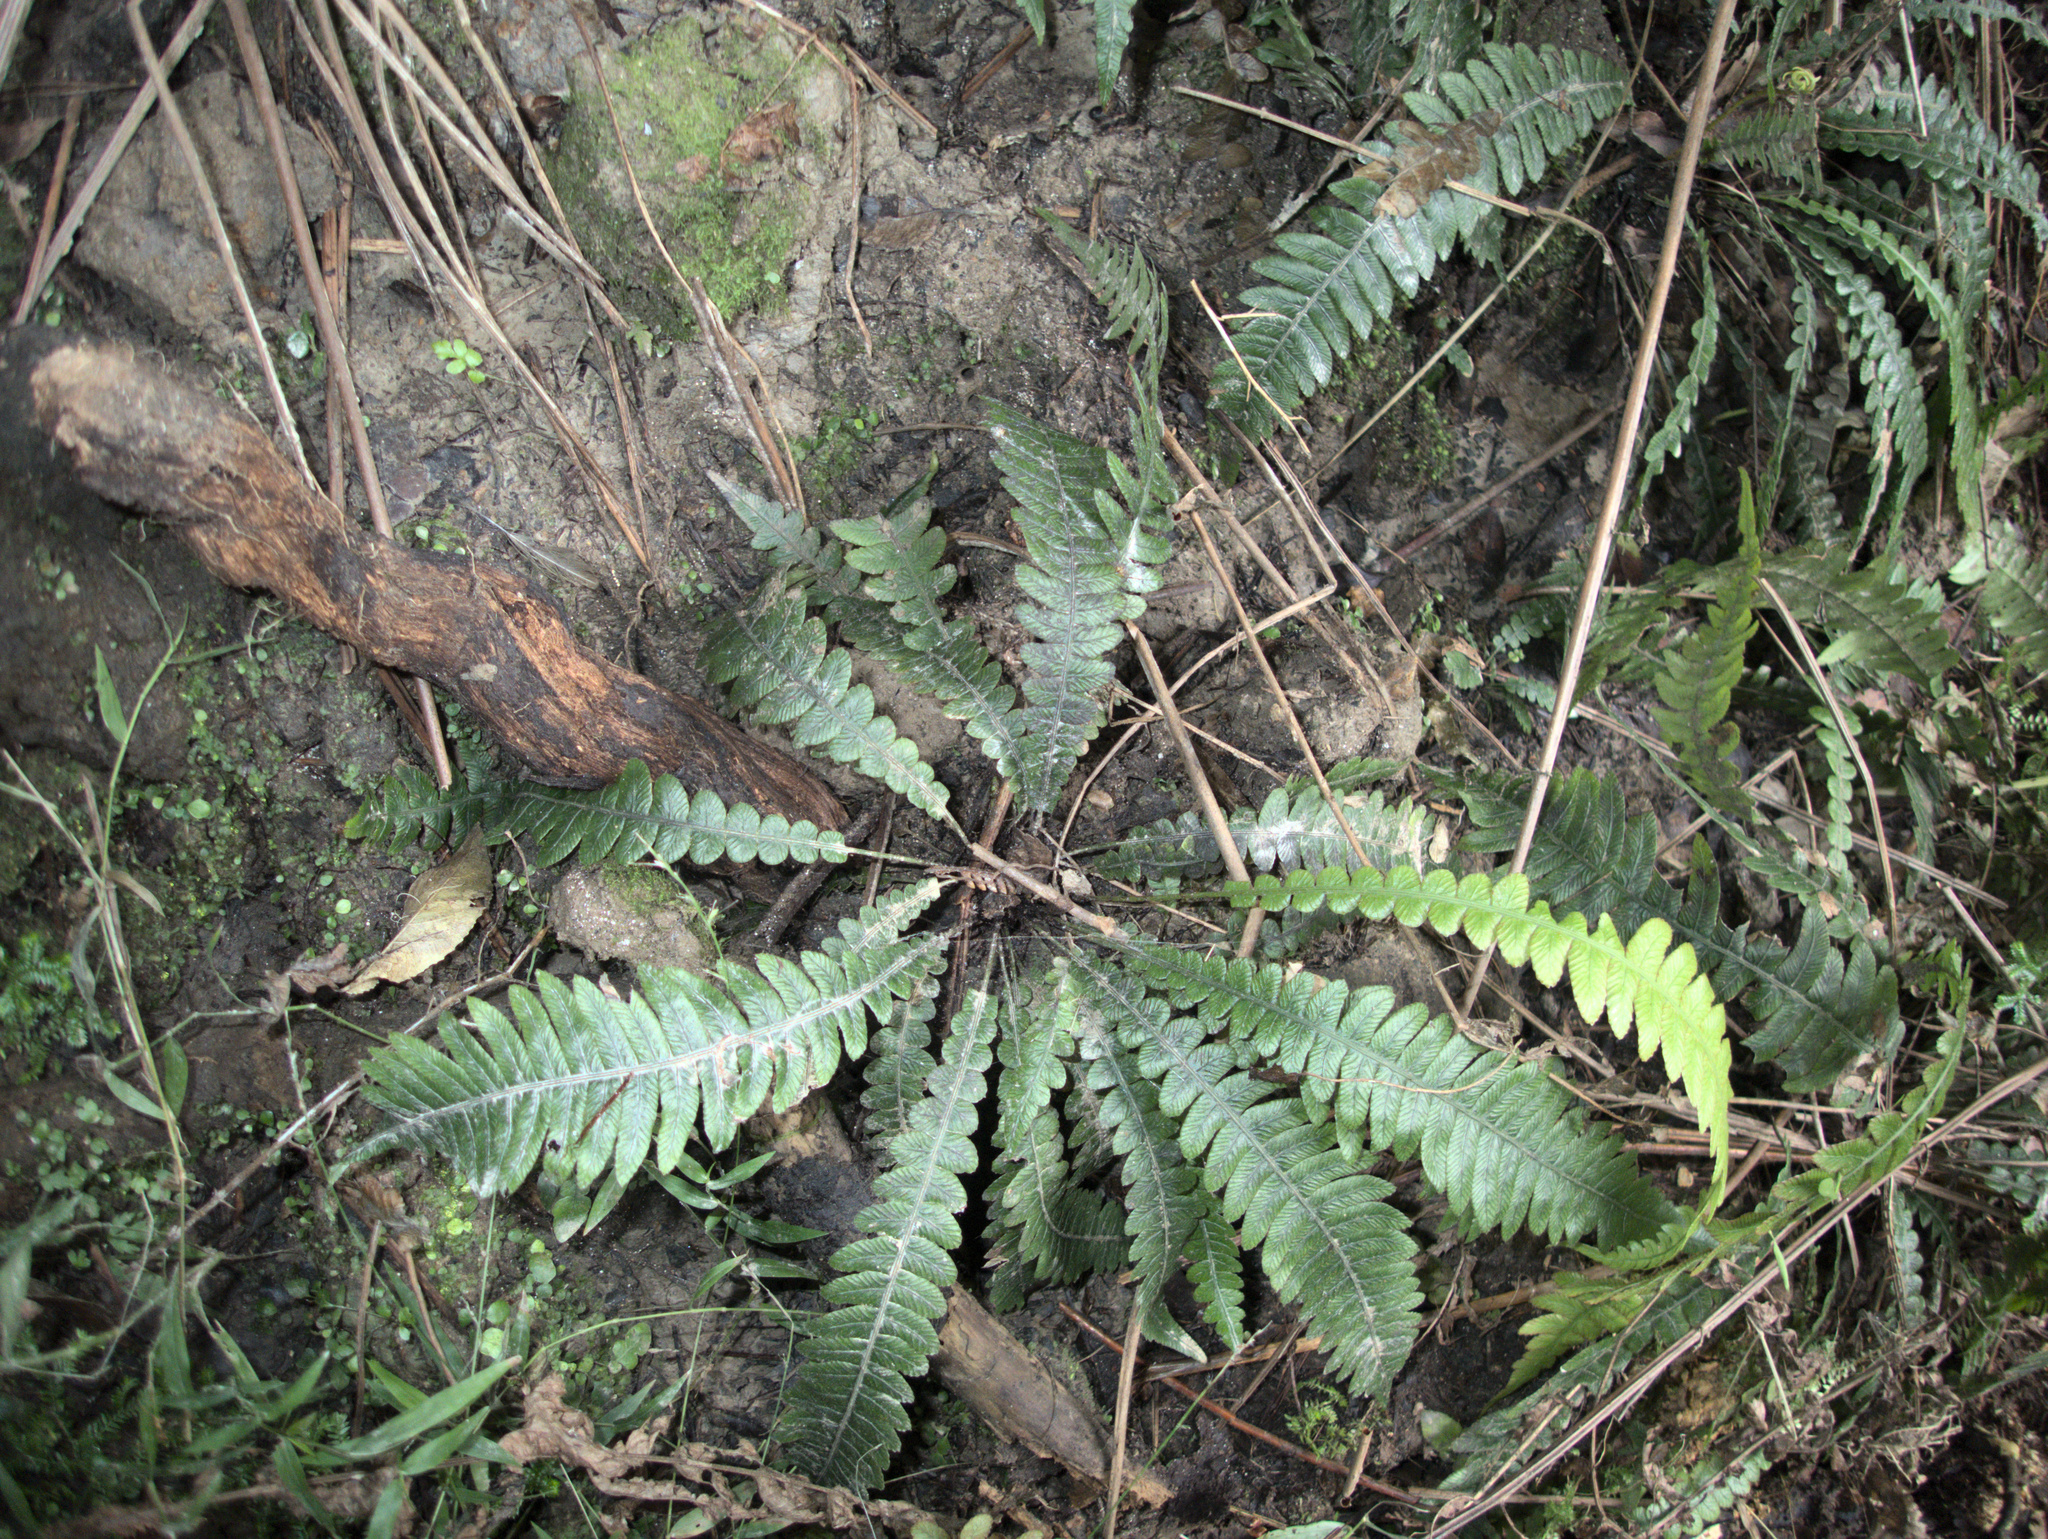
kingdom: Plantae
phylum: Tracheophyta
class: Polypodiopsida
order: Polypodiales
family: Blechnaceae
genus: Austroblechnum
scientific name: Austroblechnum lanceolatum
